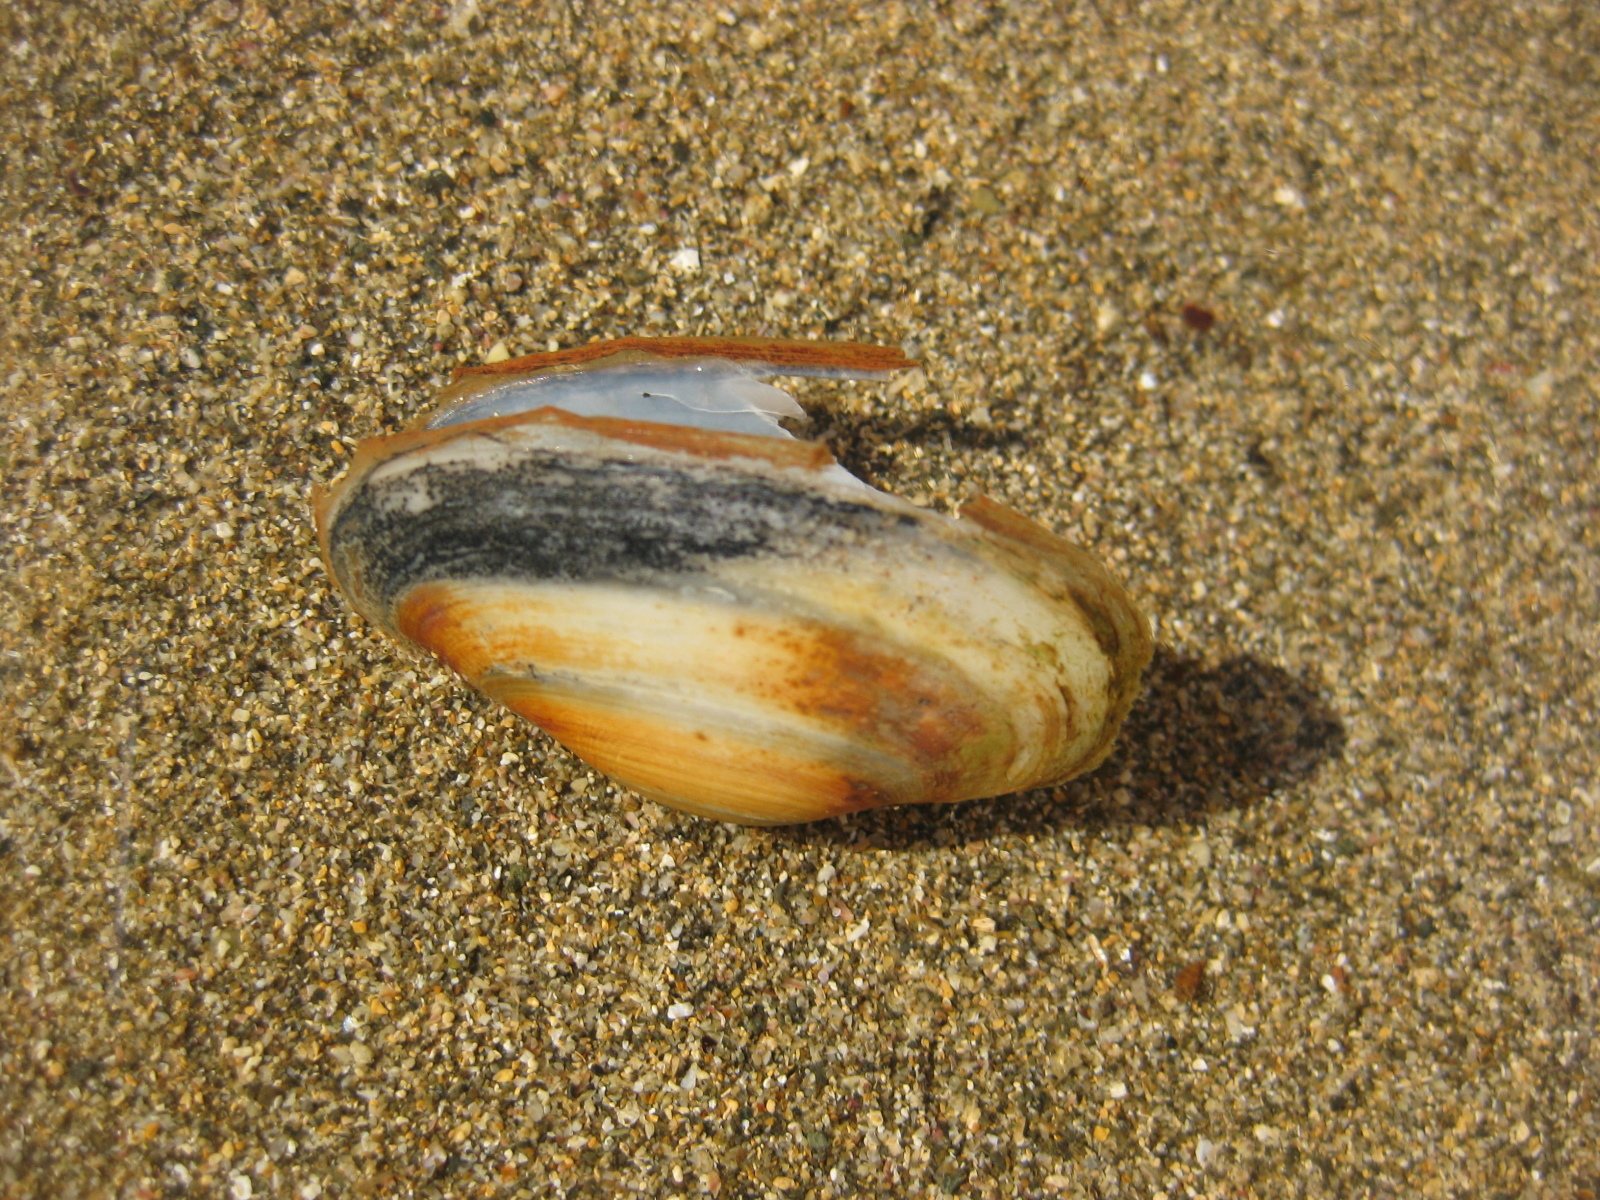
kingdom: Animalia
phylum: Mollusca
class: Bivalvia
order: Venerida
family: Mesodesmatidae
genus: Paphies
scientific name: Paphies australis
